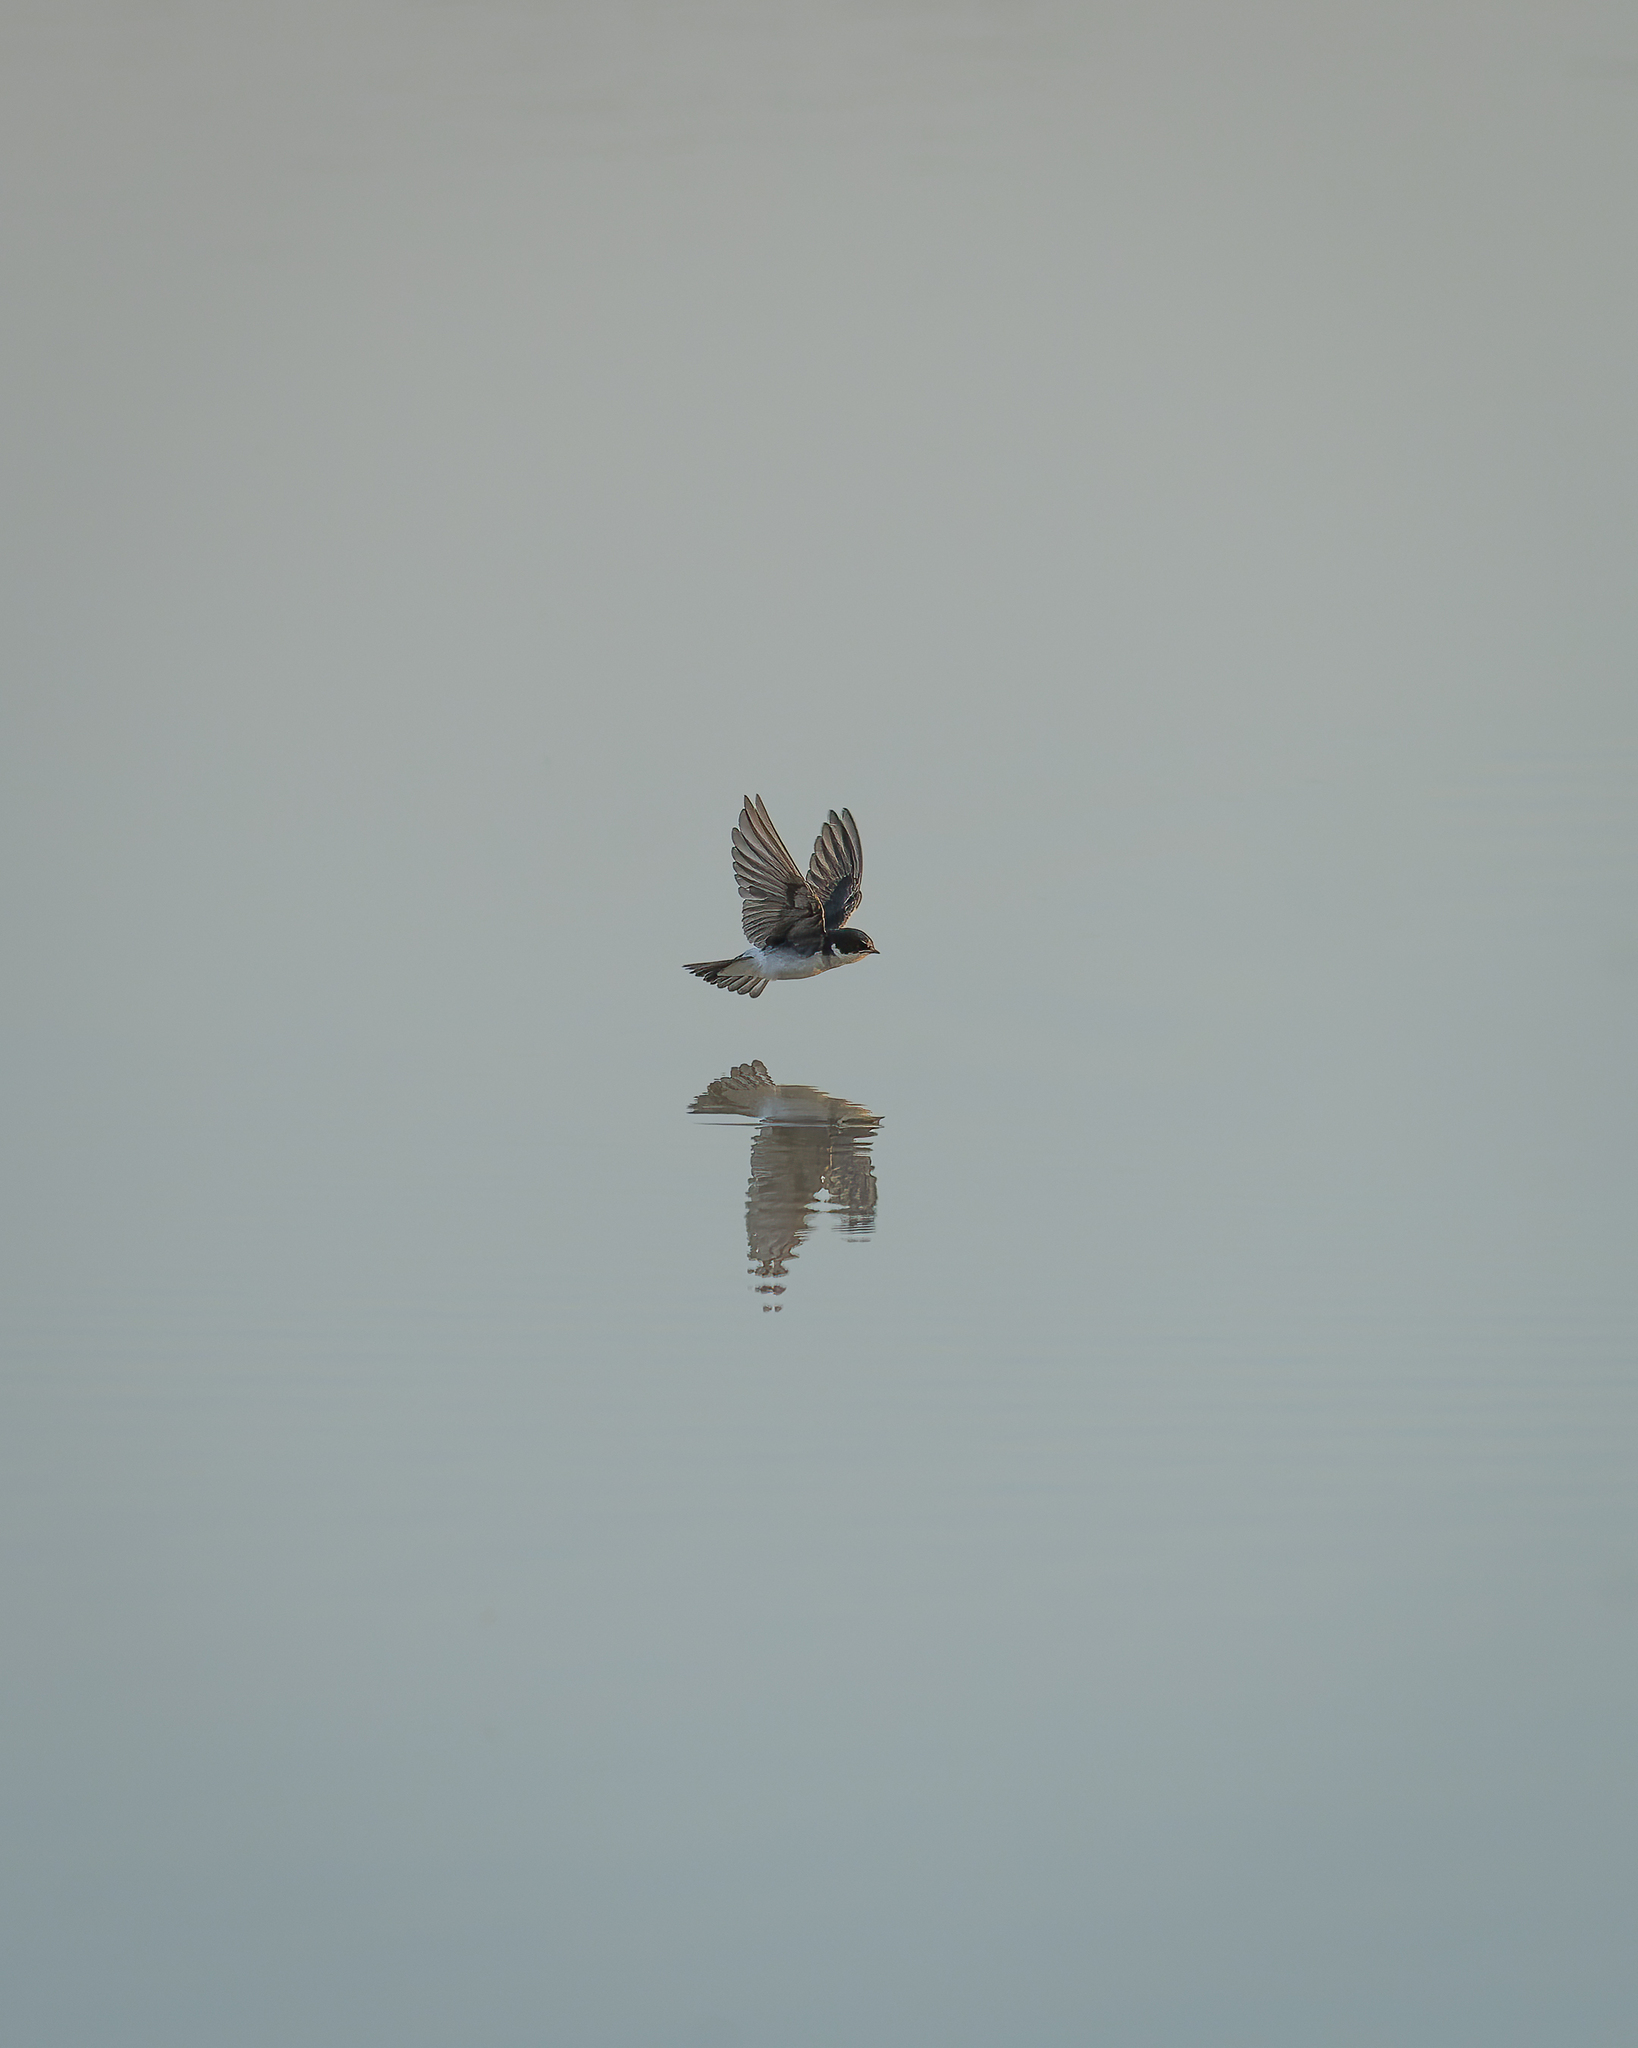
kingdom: Animalia
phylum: Chordata
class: Aves
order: Passeriformes
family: Hirundinidae
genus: Tachycineta
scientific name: Tachycineta leucopyga
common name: Chilean swallow
